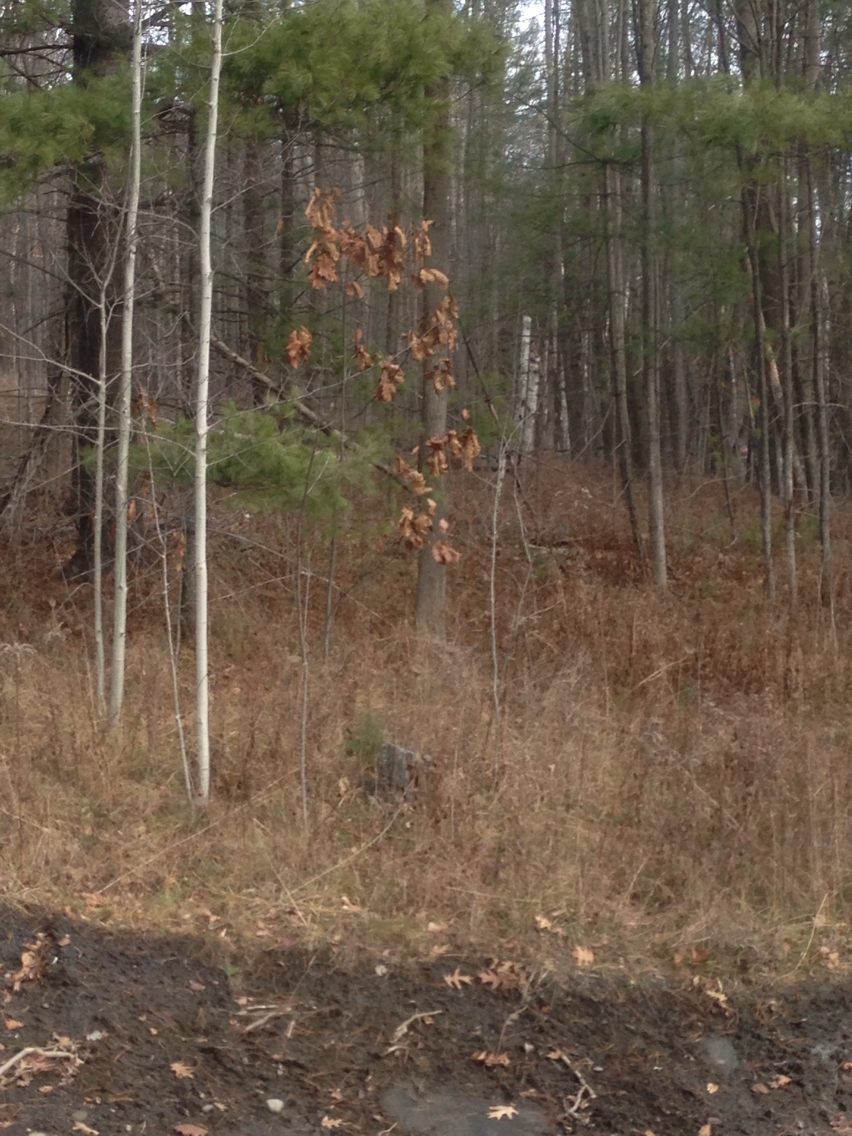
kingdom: Plantae
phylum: Tracheophyta
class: Magnoliopsida
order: Fagales
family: Fagaceae
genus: Quercus
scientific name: Quercus rubra
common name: Red oak
